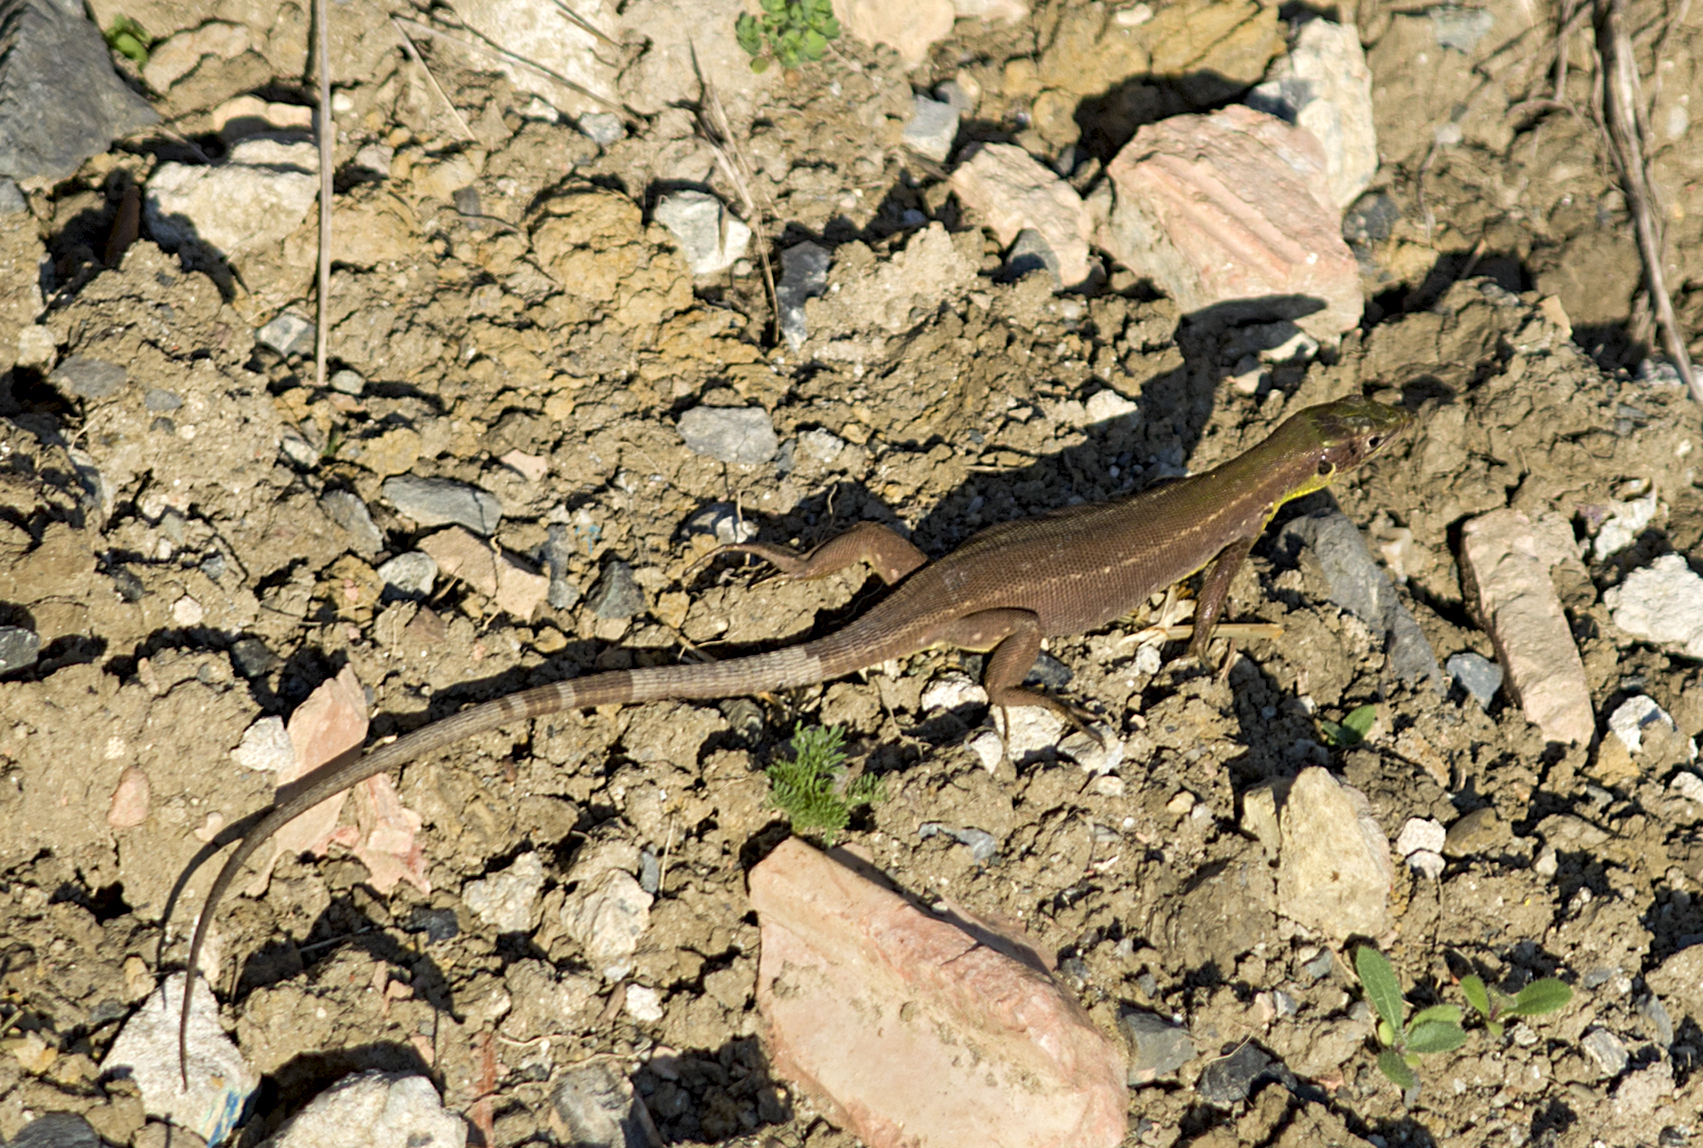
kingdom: Animalia
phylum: Chordata
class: Squamata
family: Lacertidae
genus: Lacerta
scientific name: Lacerta diplochondrodes
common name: Rhodos green lizard
